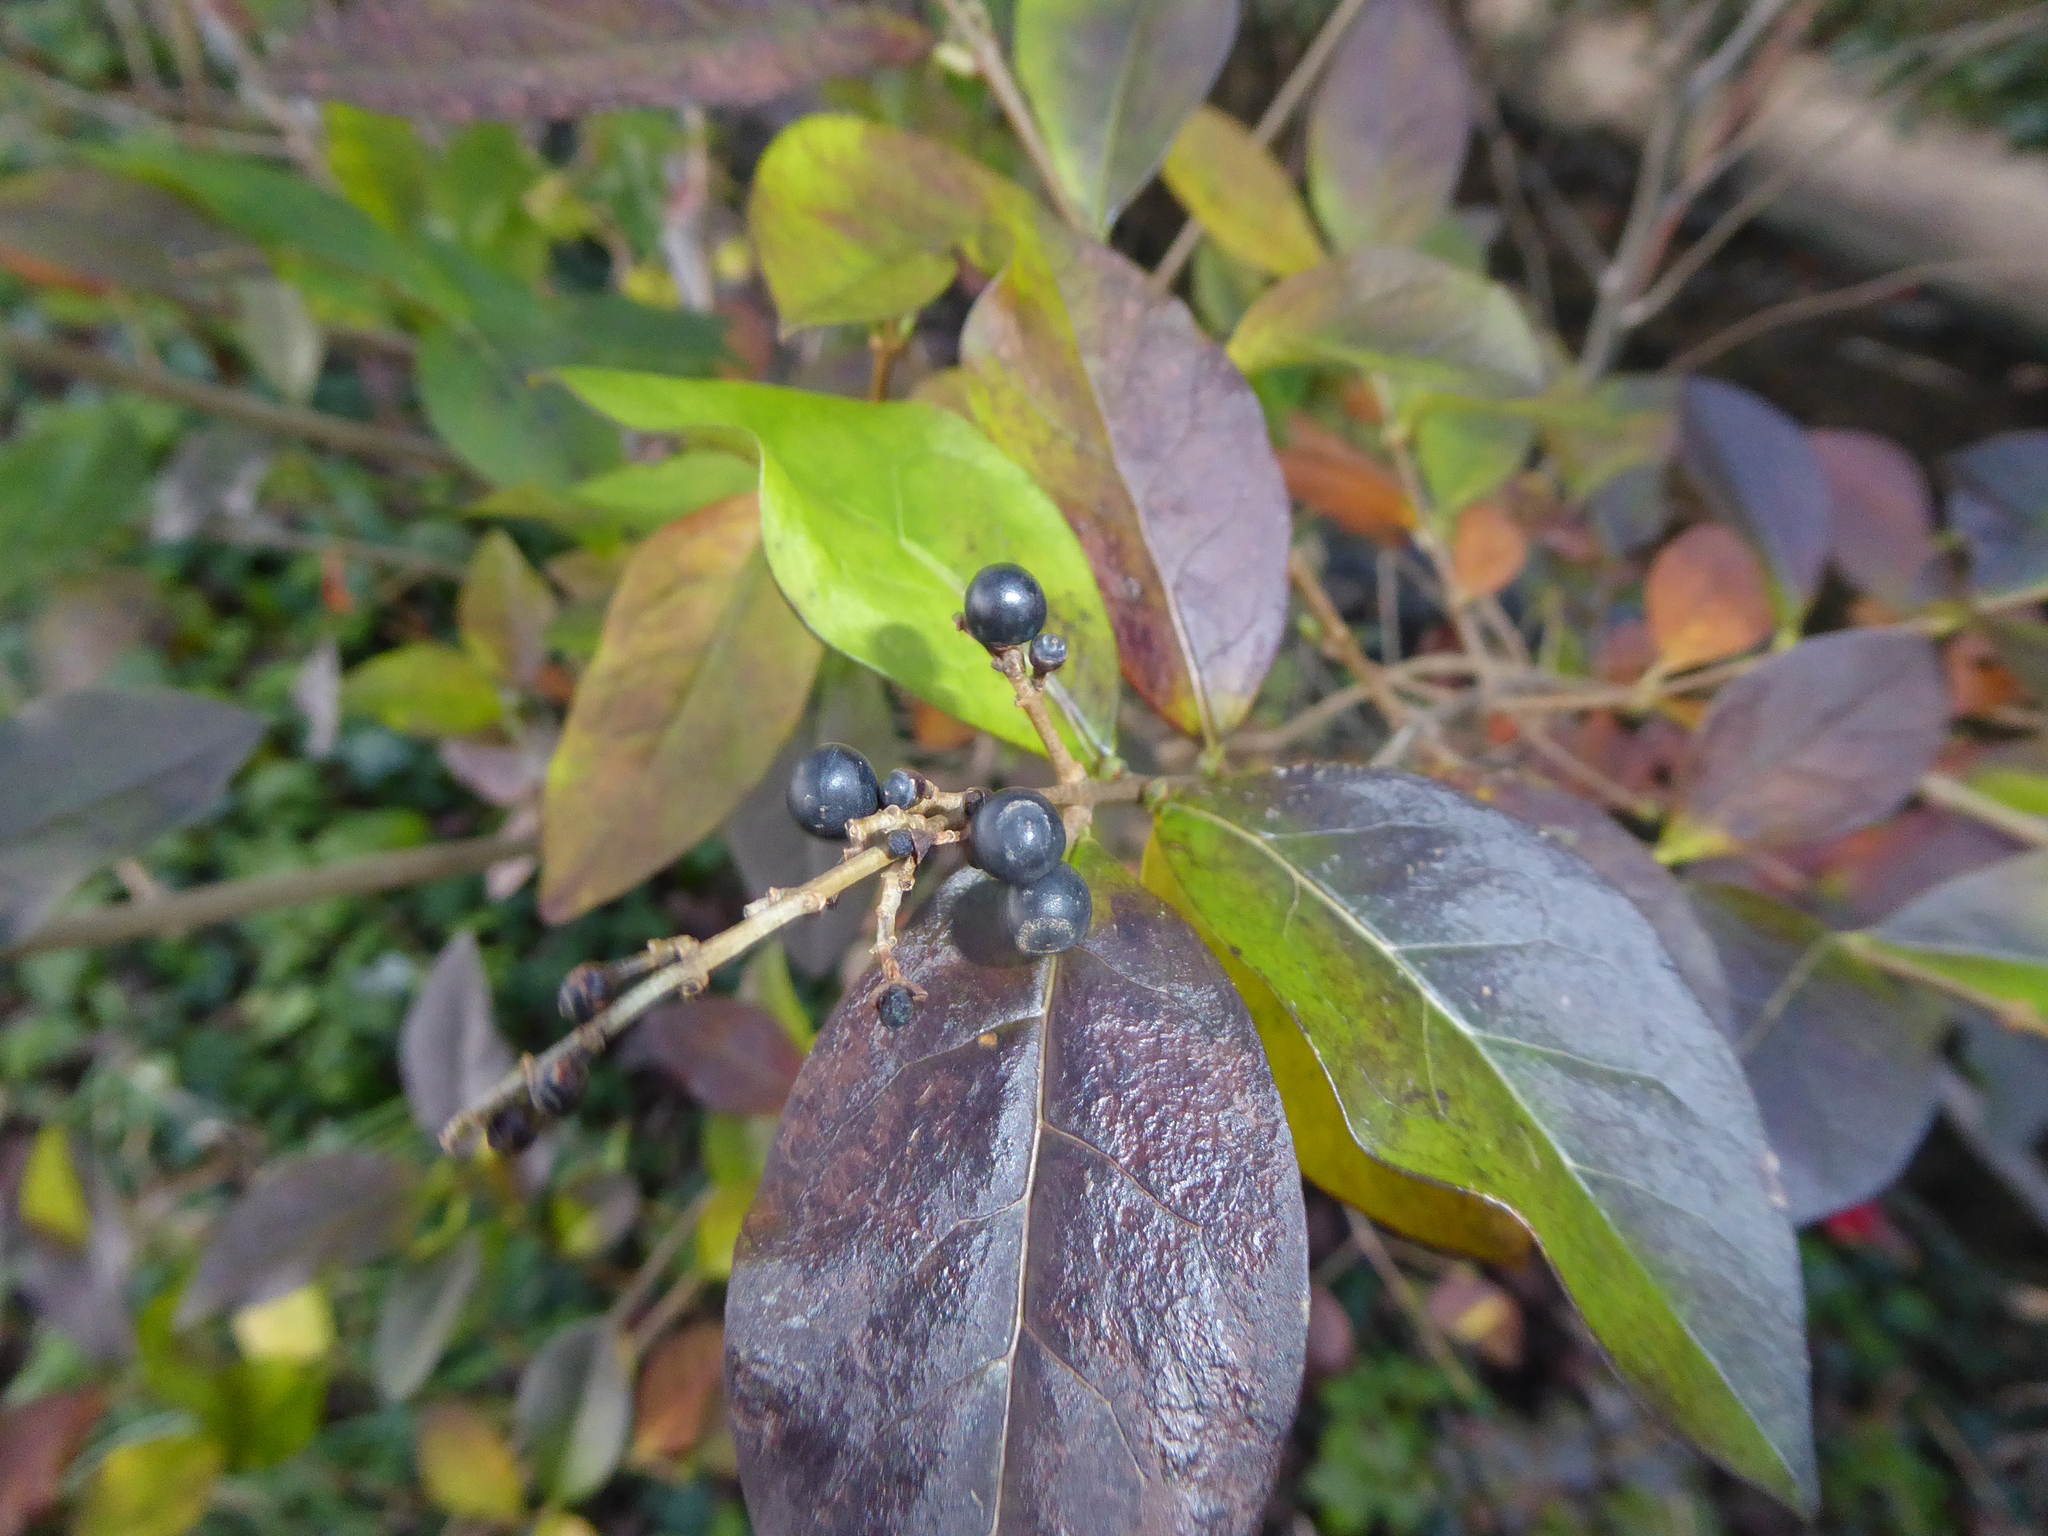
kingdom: Plantae
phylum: Tracheophyta
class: Magnoliopsida
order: Lamiales
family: Oleaceae
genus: Ligustrum
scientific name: Ligustrum ovalifolium
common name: California privet
